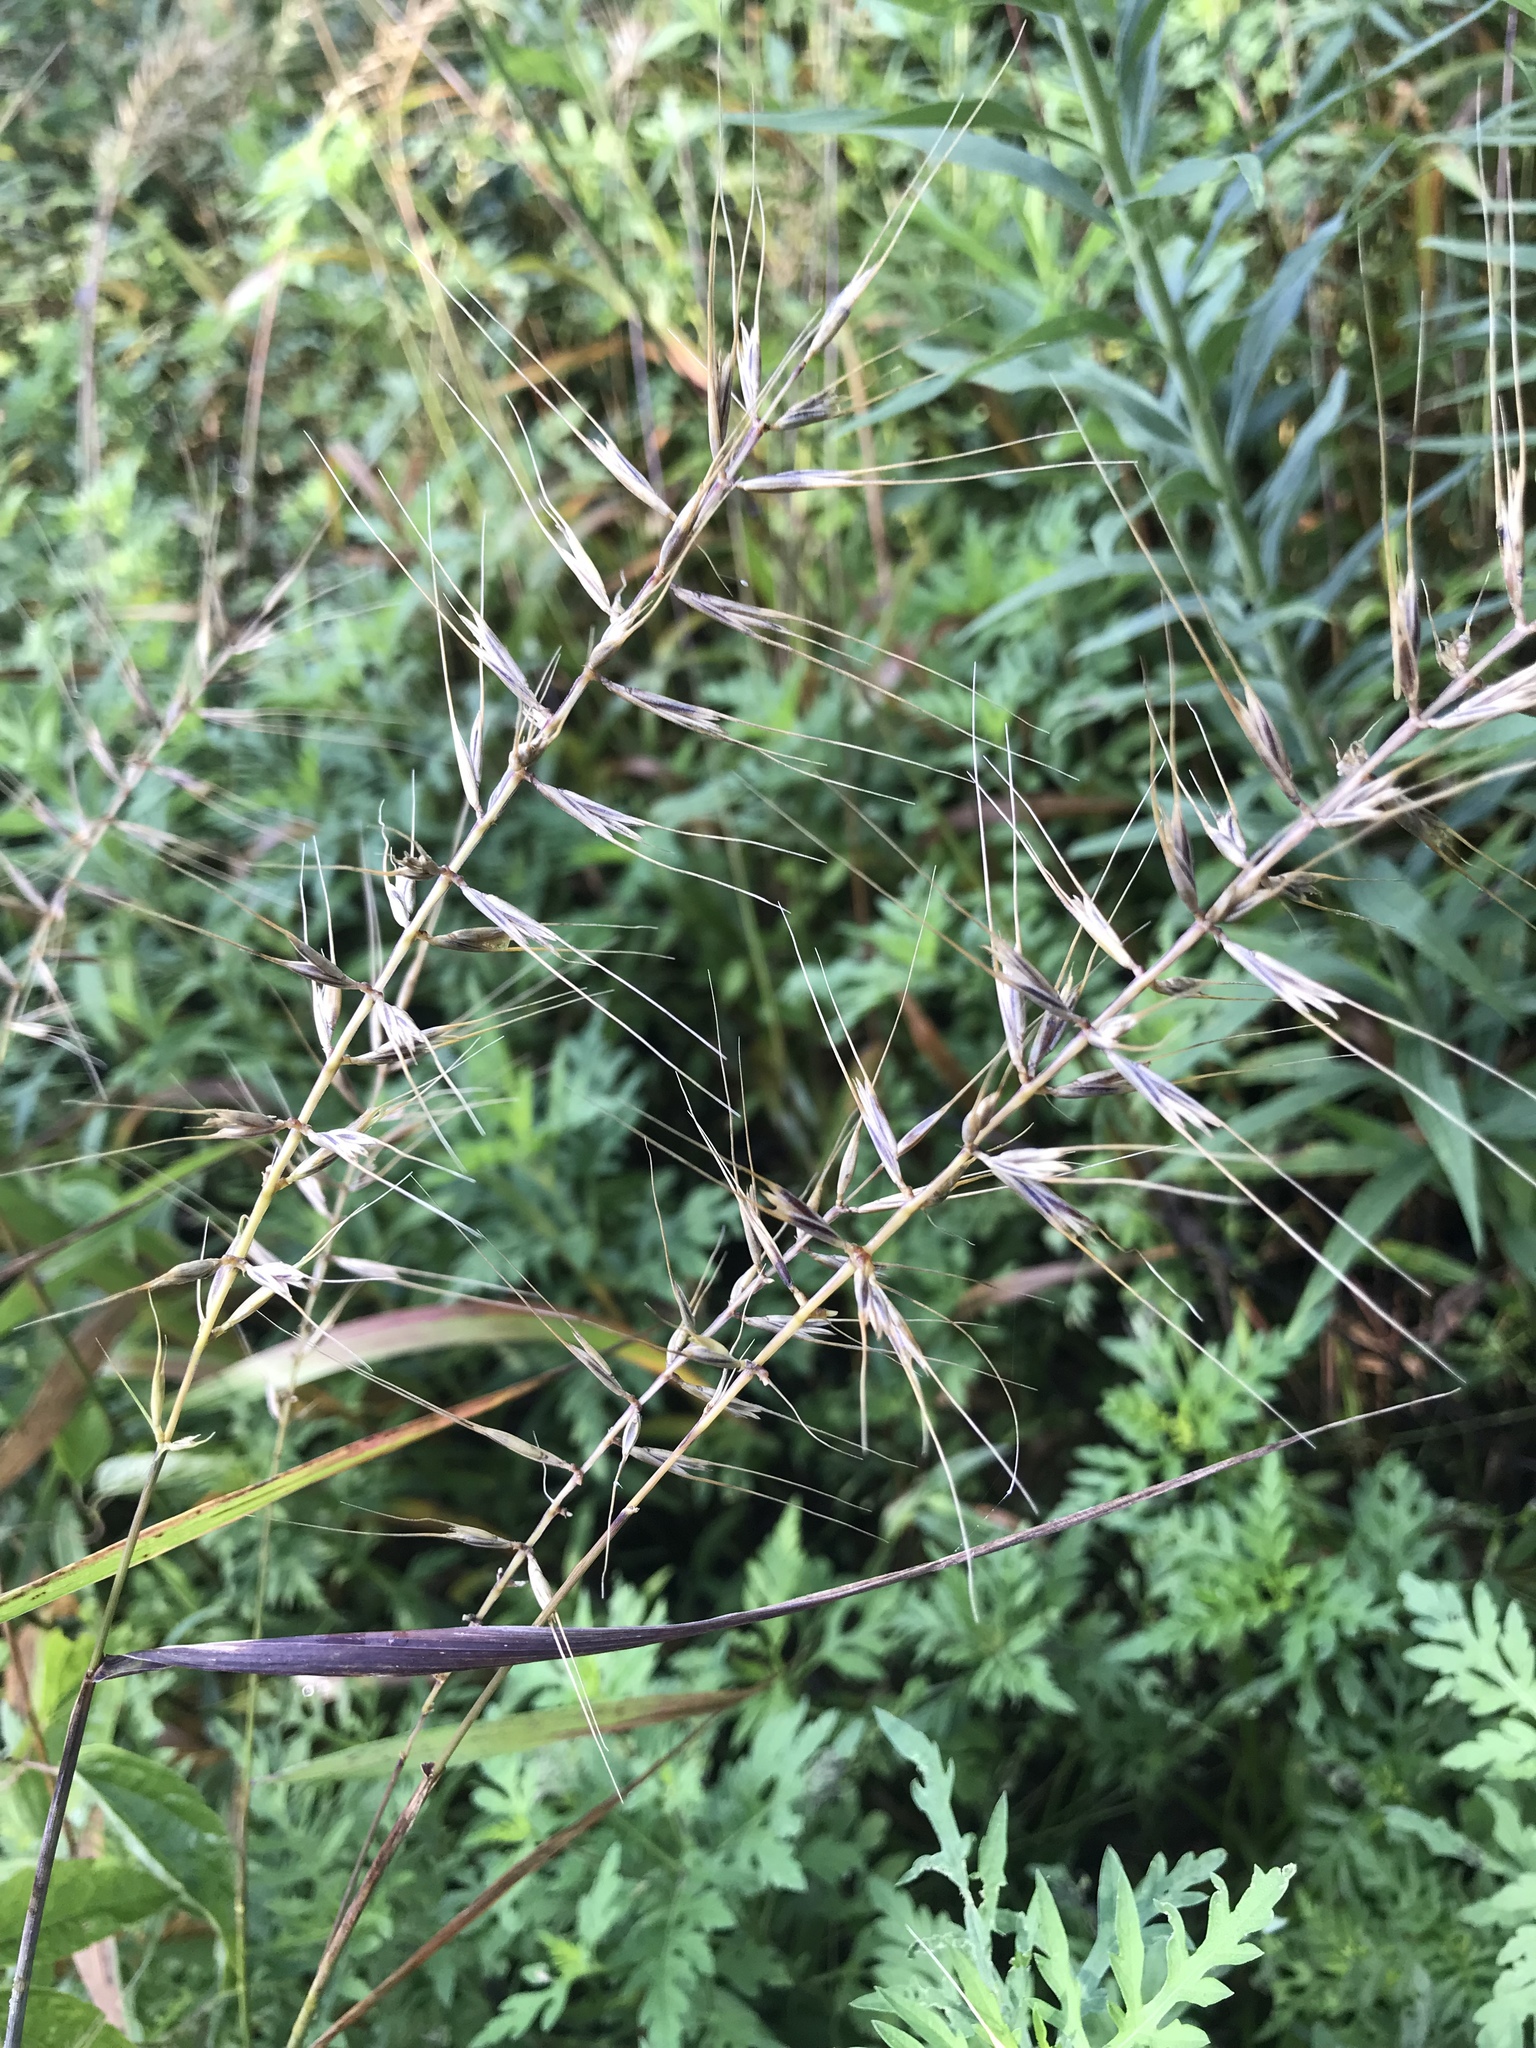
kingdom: Plantae
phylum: Tracheophyta
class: Liliopsida
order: Poales
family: Poaceae
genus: Elymus
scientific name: Elymus hystrix
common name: Bottlebrush grass
